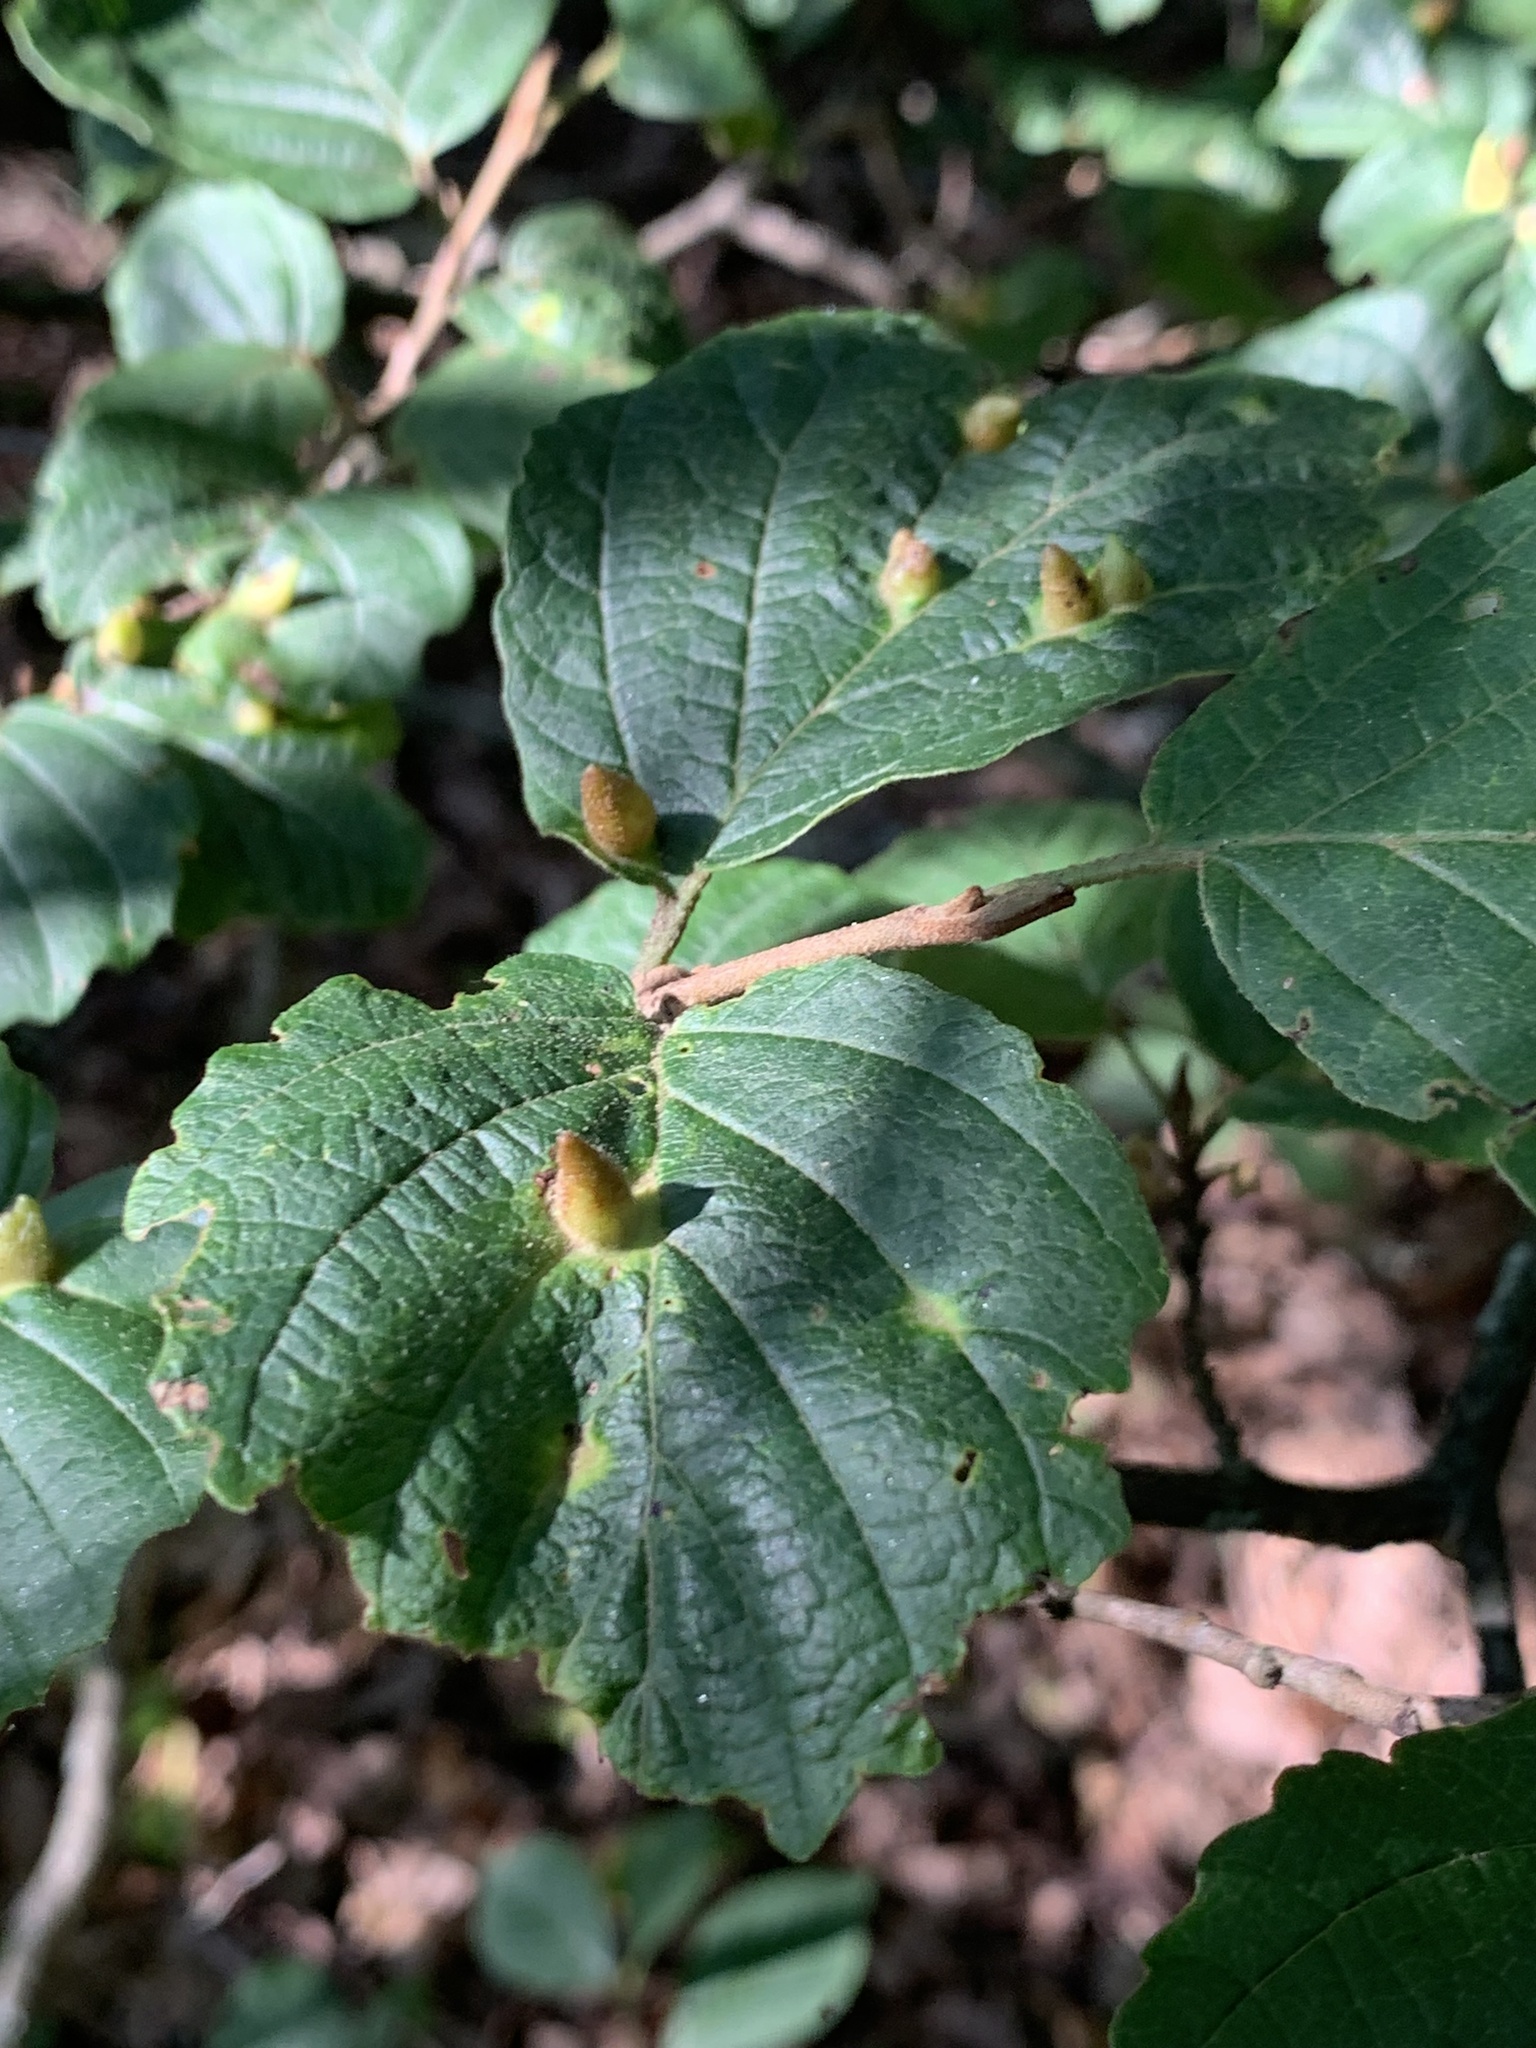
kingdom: Animalia
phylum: Arthropoda
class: Insecta
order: Hemiptera
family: Aphididae
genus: Hormaphis
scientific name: Hormaphis hamamelidis
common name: Witch-hazel cone gall aphid
